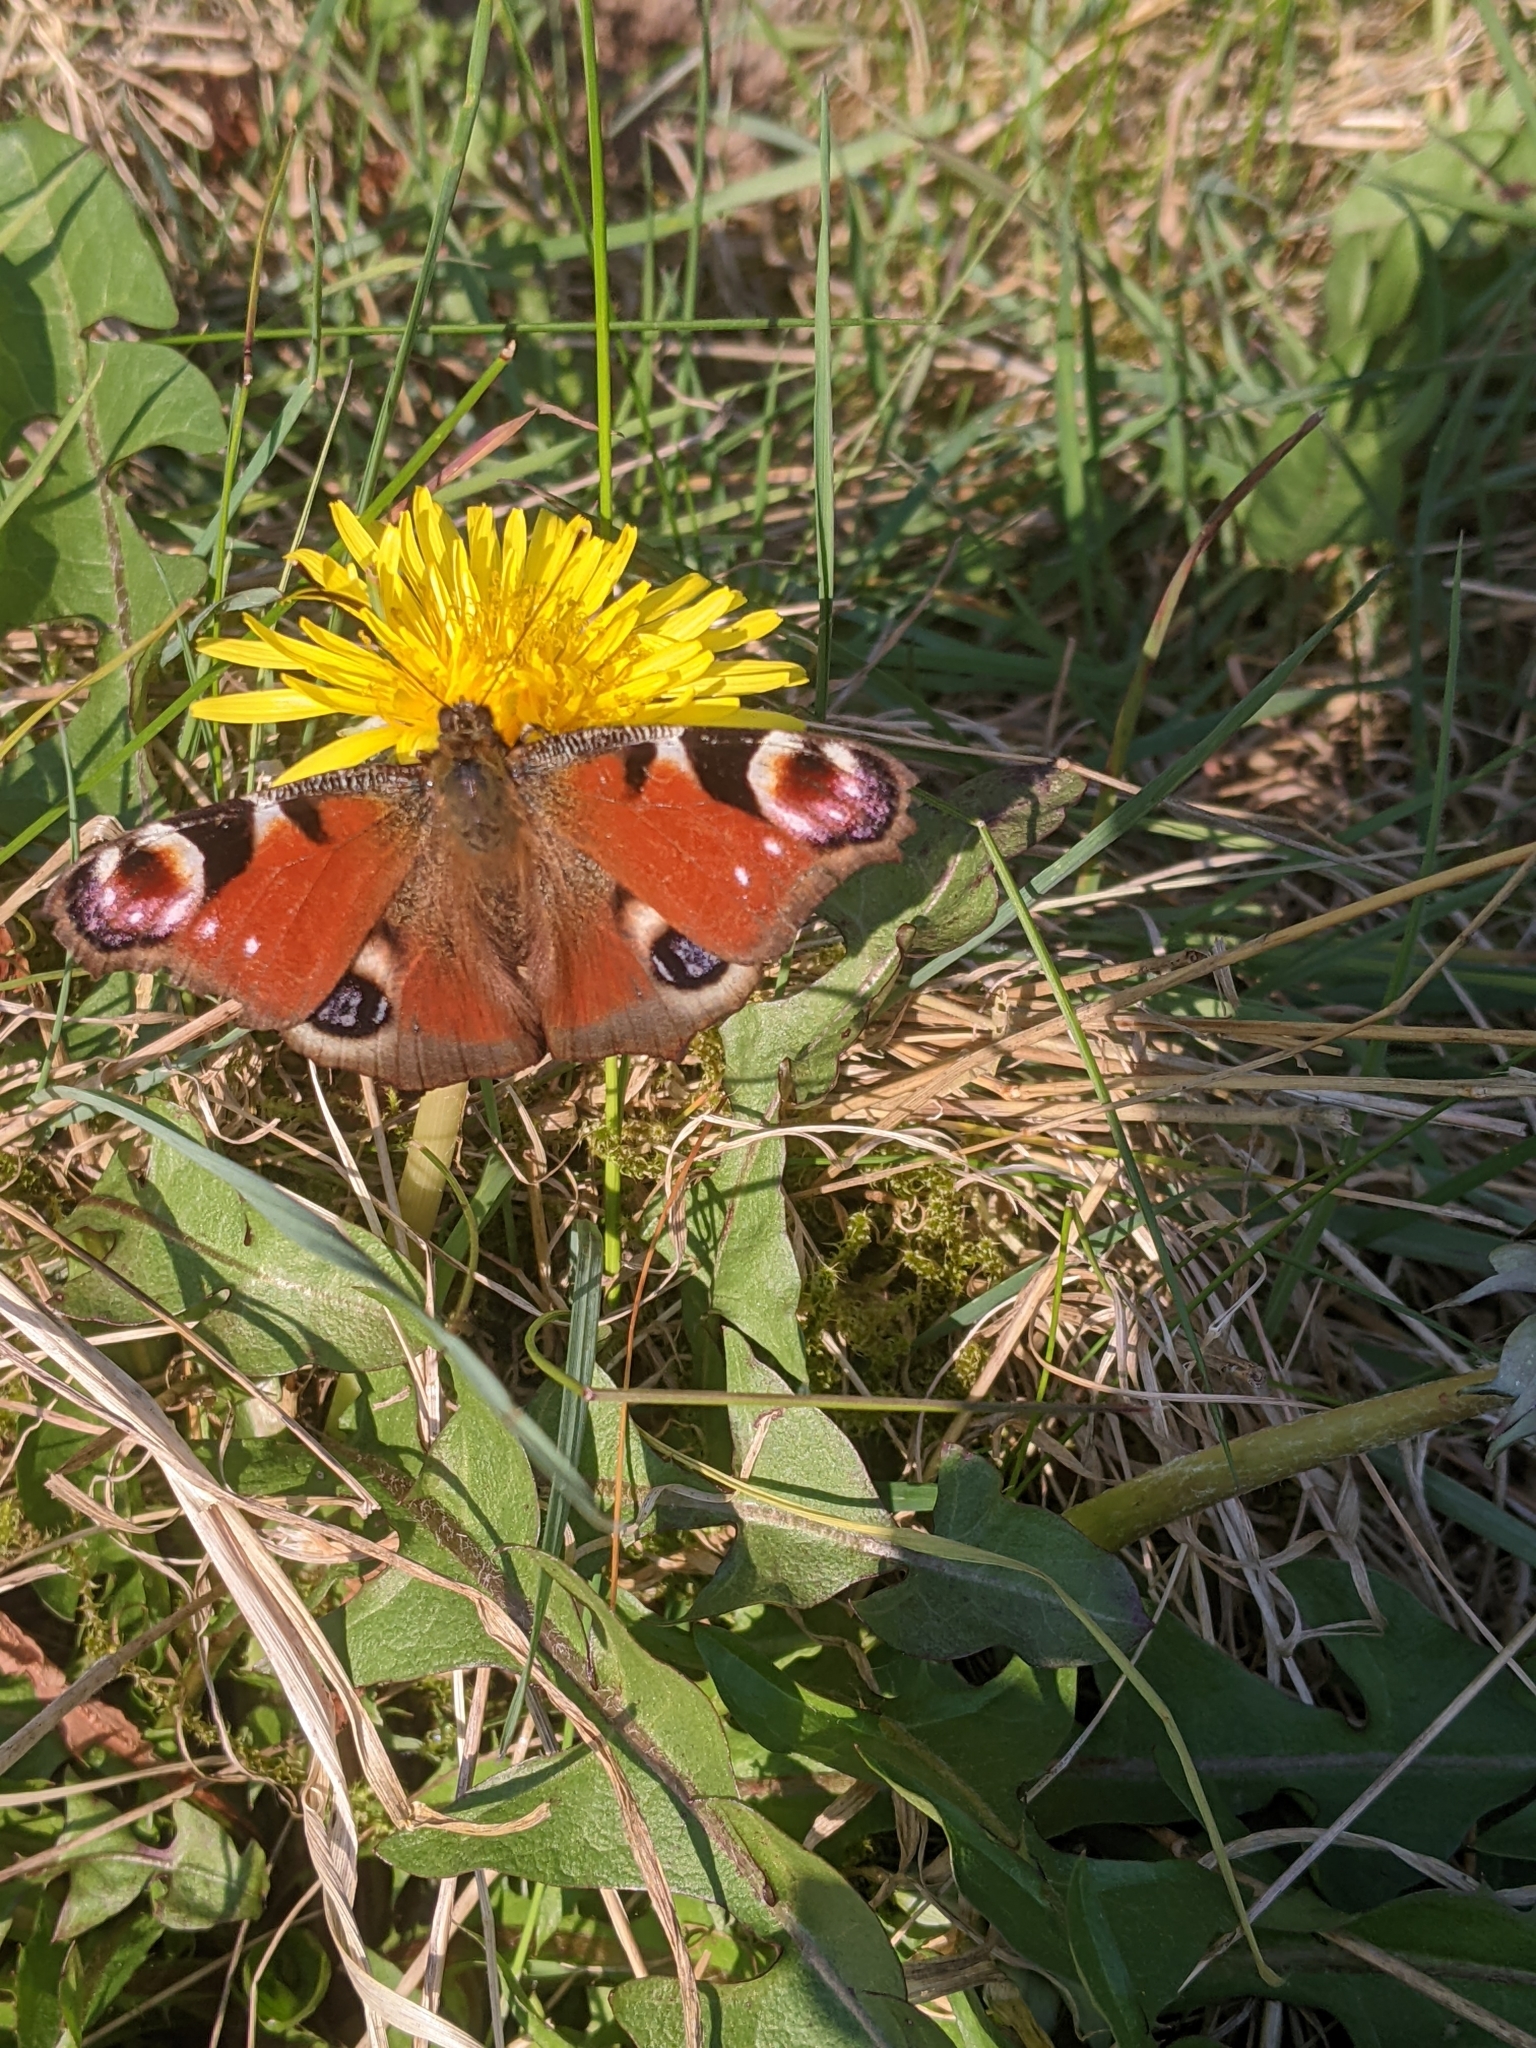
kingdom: Animalia
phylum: Arthropoda
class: Insecta
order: Lepidoptera
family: Nymphalidae
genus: Aglais
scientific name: Aglais io
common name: Peacock
